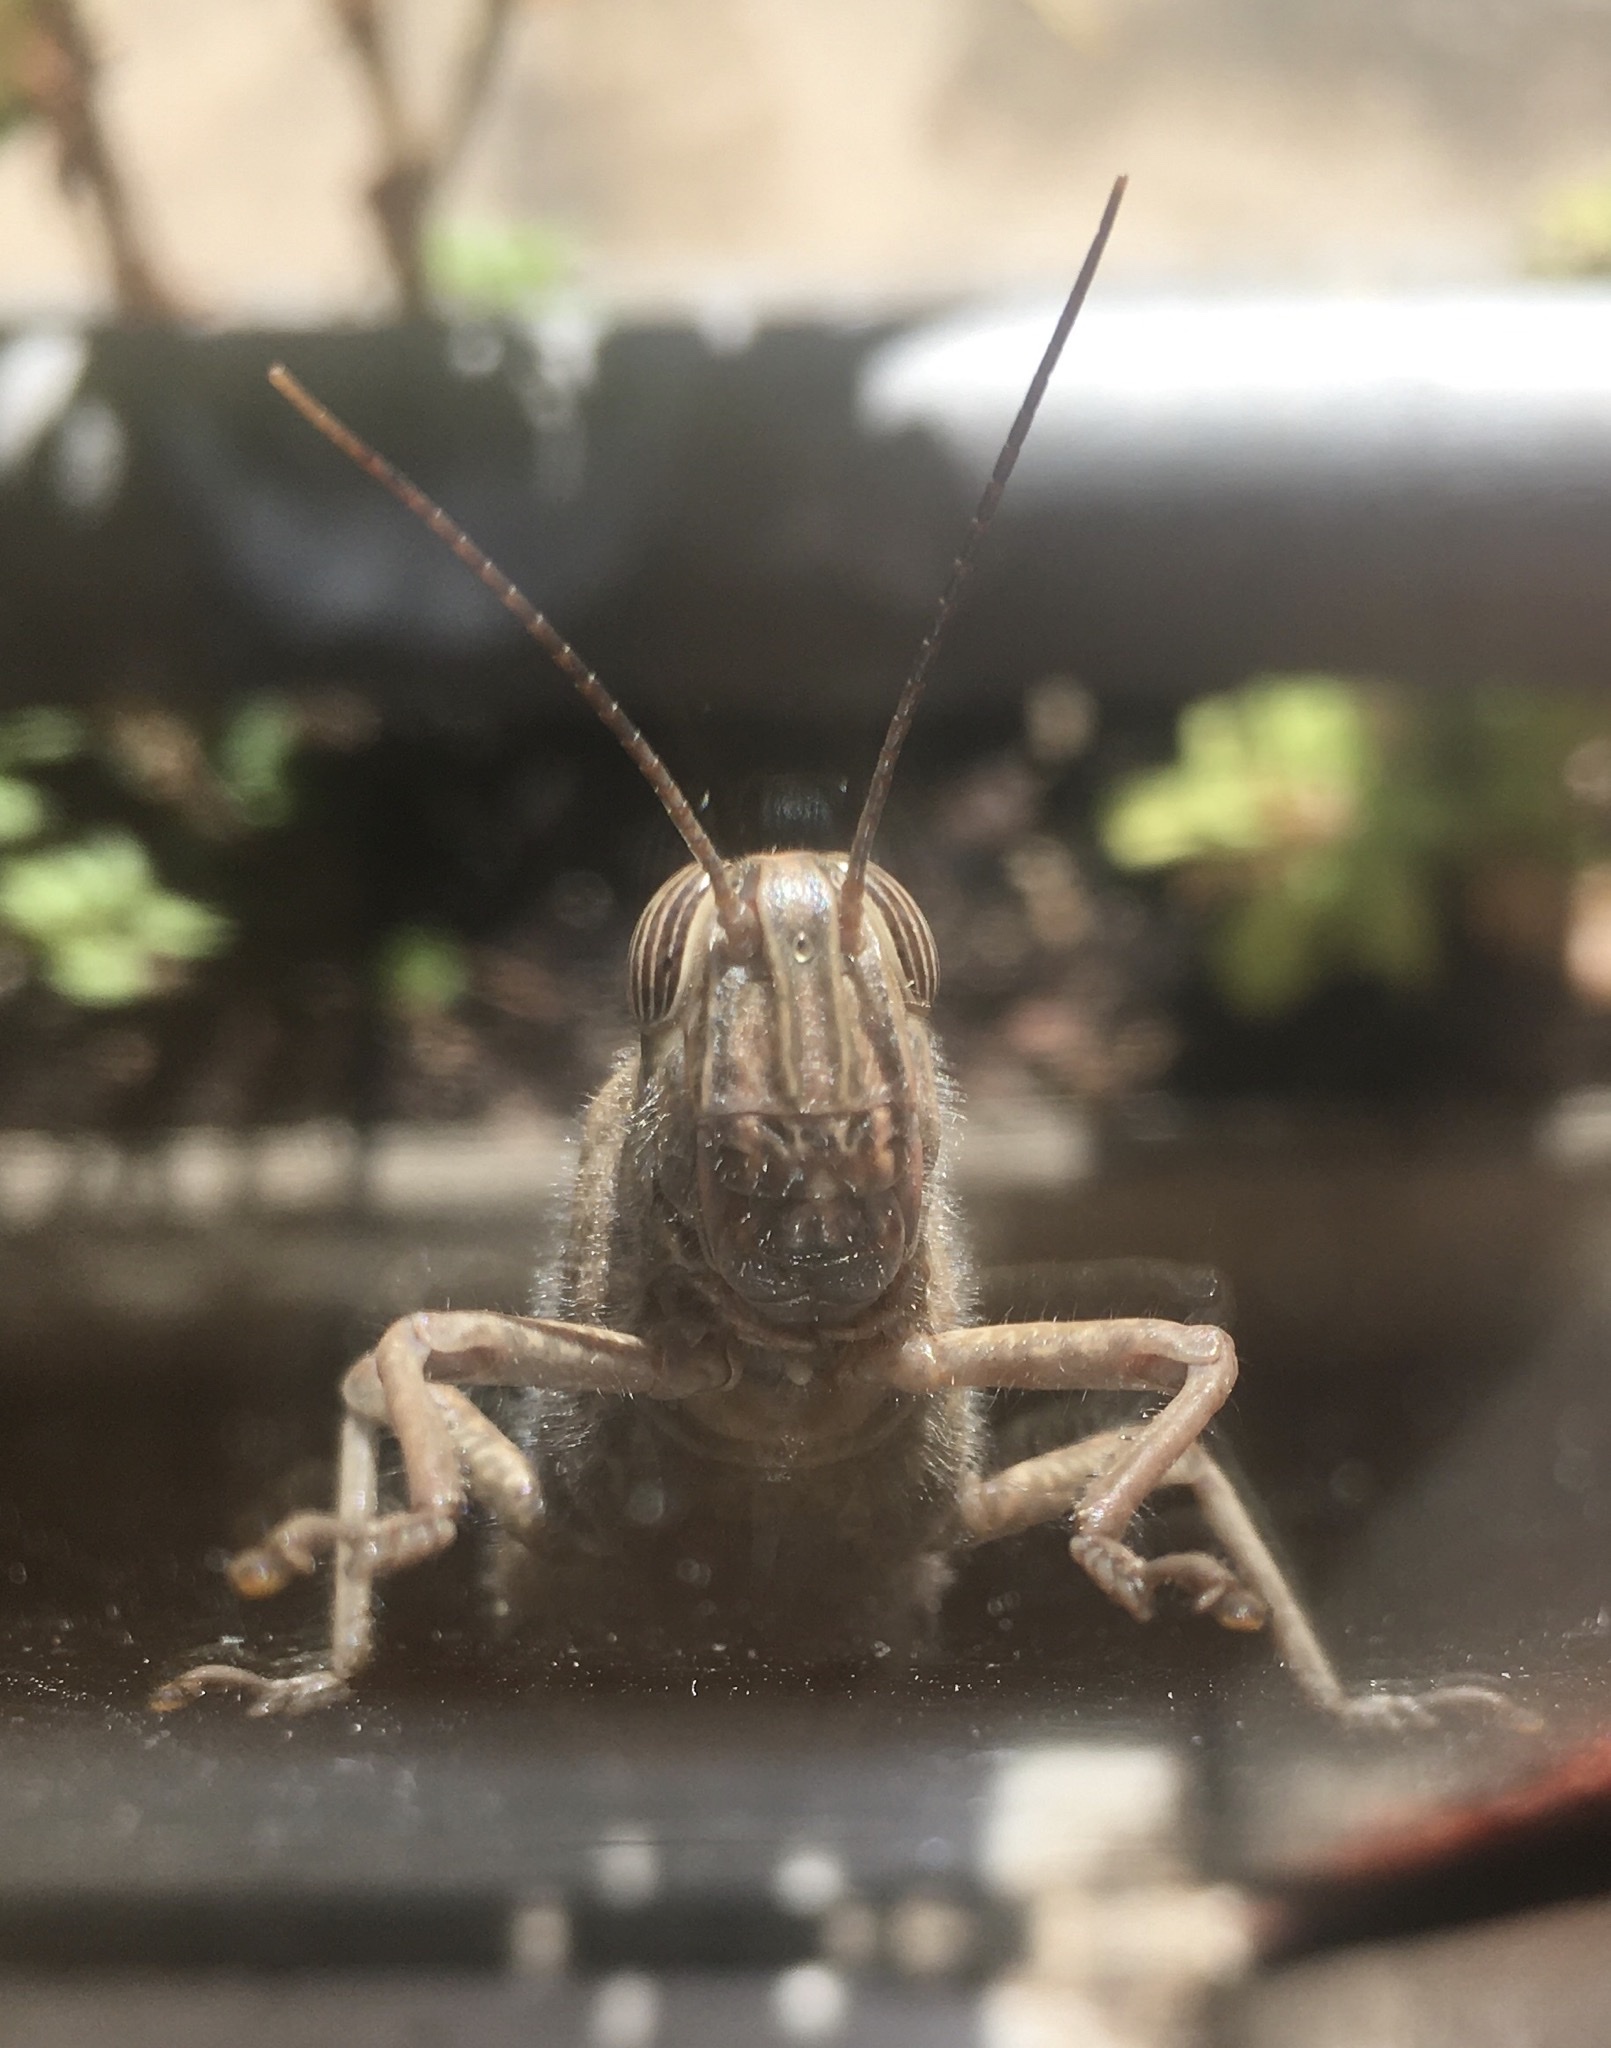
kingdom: Animalia
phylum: Arthropoda
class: Insecta
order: Orthoptera
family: Acrididae
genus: Anacridium
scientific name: Anacridium aegyptium
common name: Egyptian grasshopper
